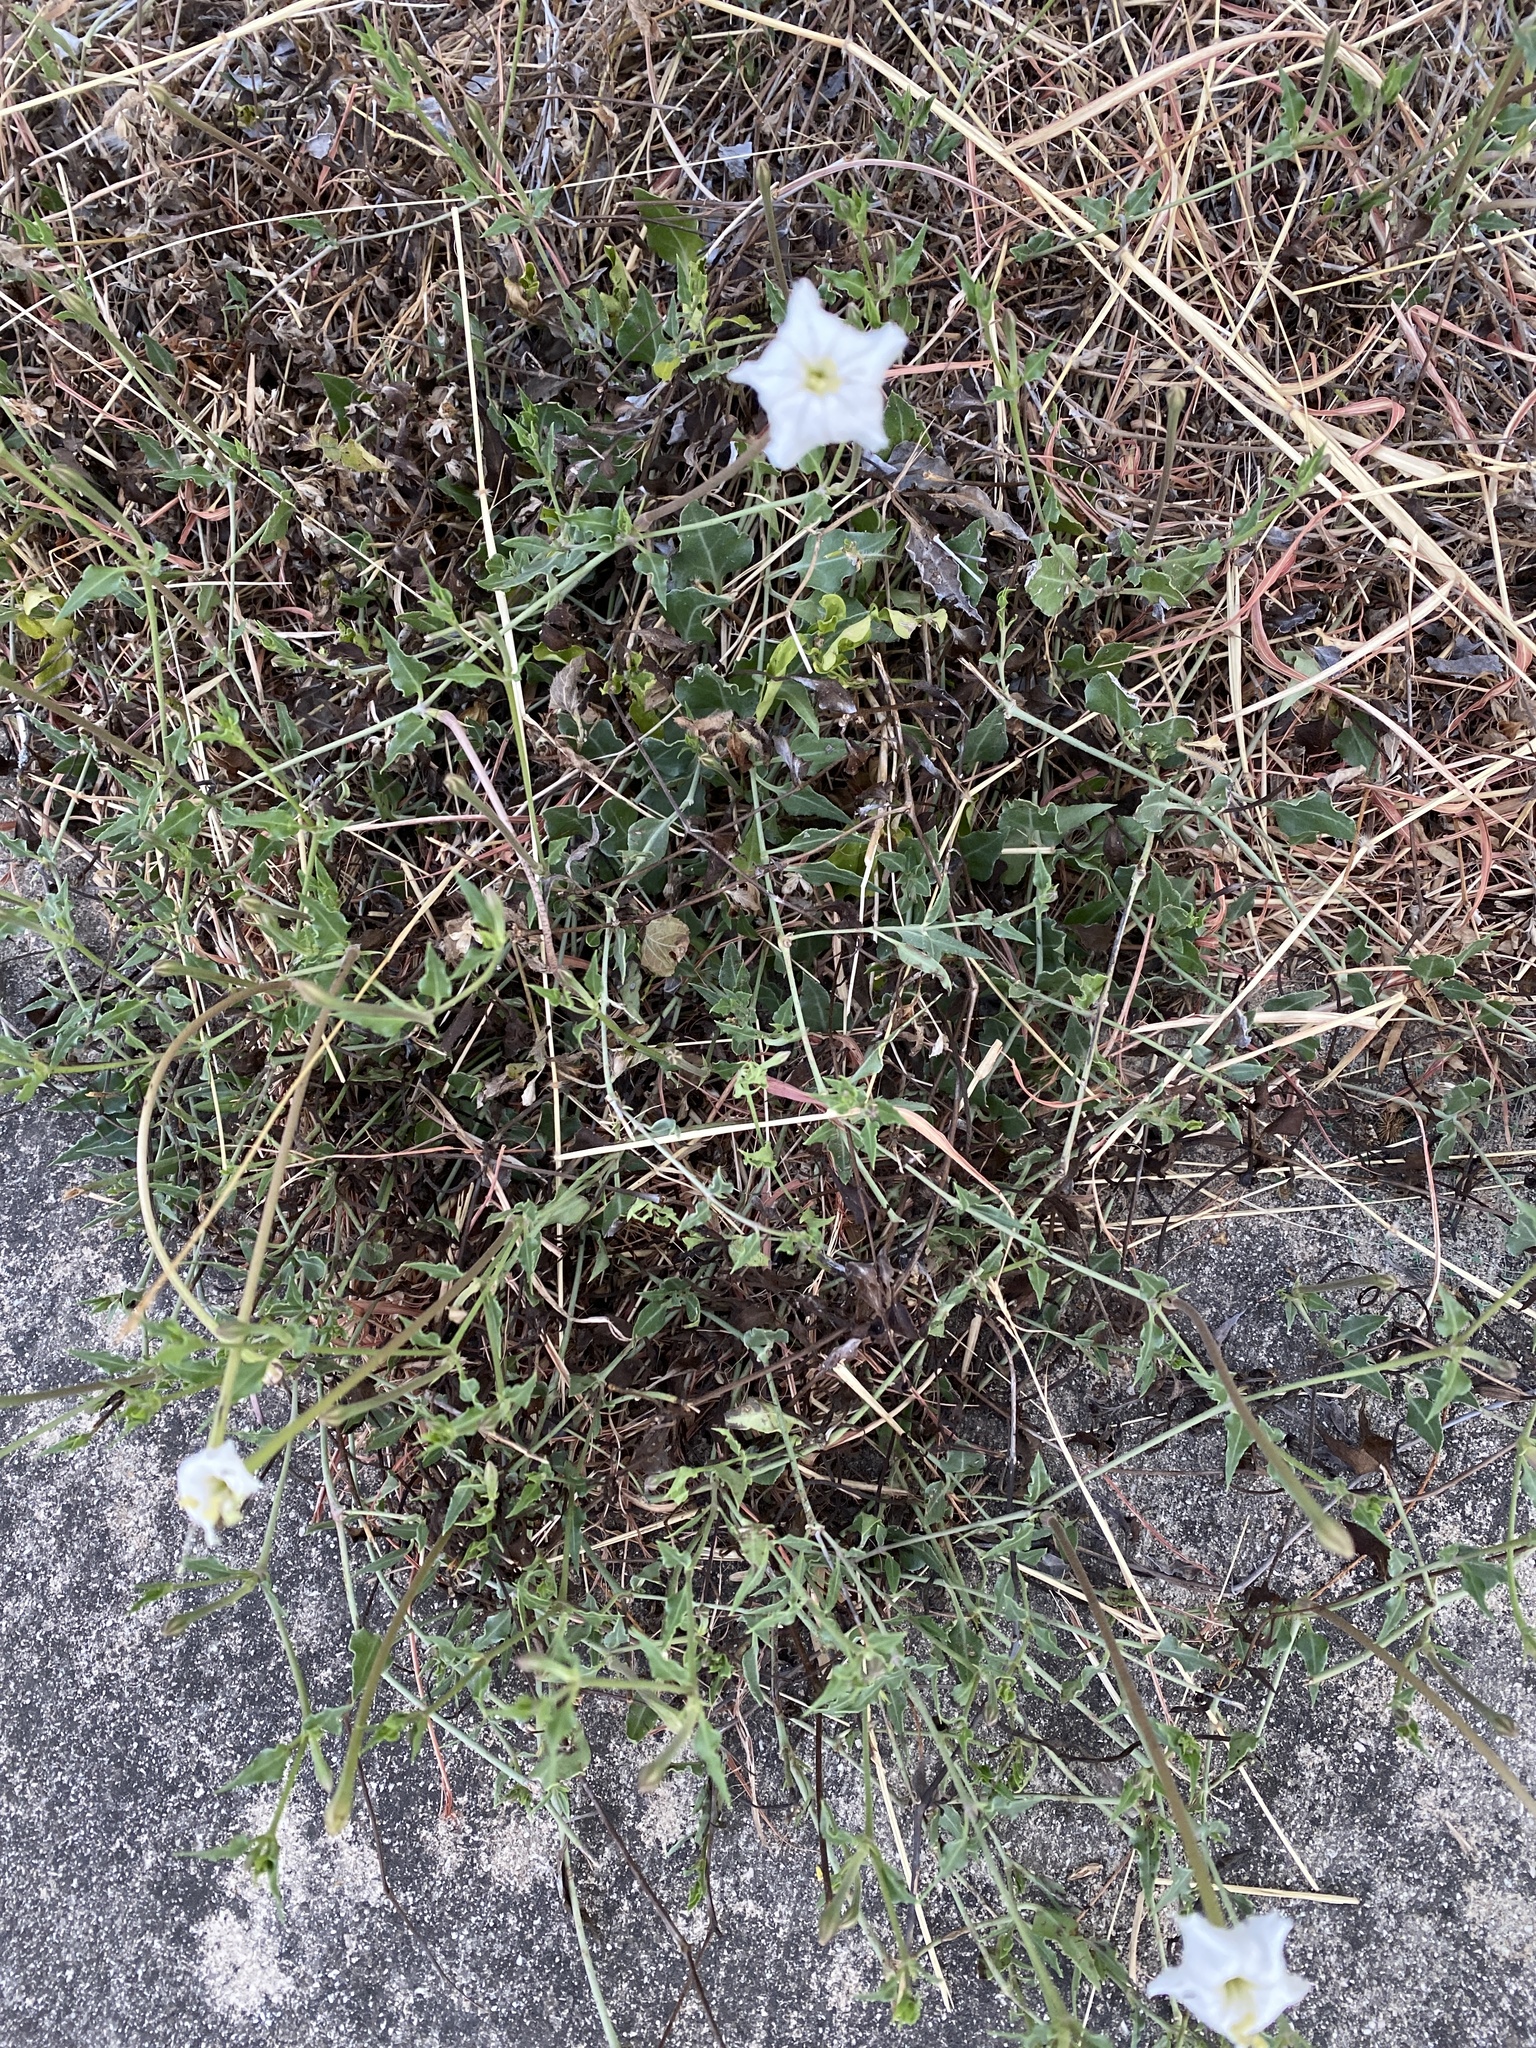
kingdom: Plantae
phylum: Tracheophyta
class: Magnoliopsida
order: Caryophyllales
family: Nyctaginaceae
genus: Acleisanthes
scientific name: Acleisanthes longiflora
